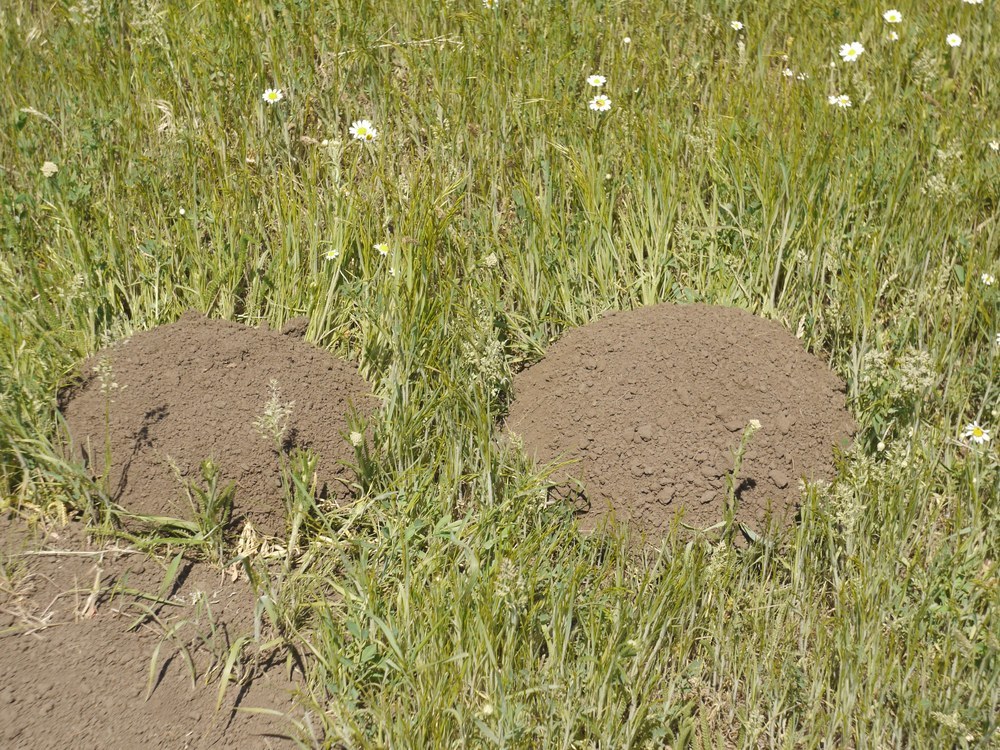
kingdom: Animalia
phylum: Chordata
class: Mammalia
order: Rodentia
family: Spalacidae
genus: Spalax
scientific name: Spalax zemni
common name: Podolsk blind mole rat
